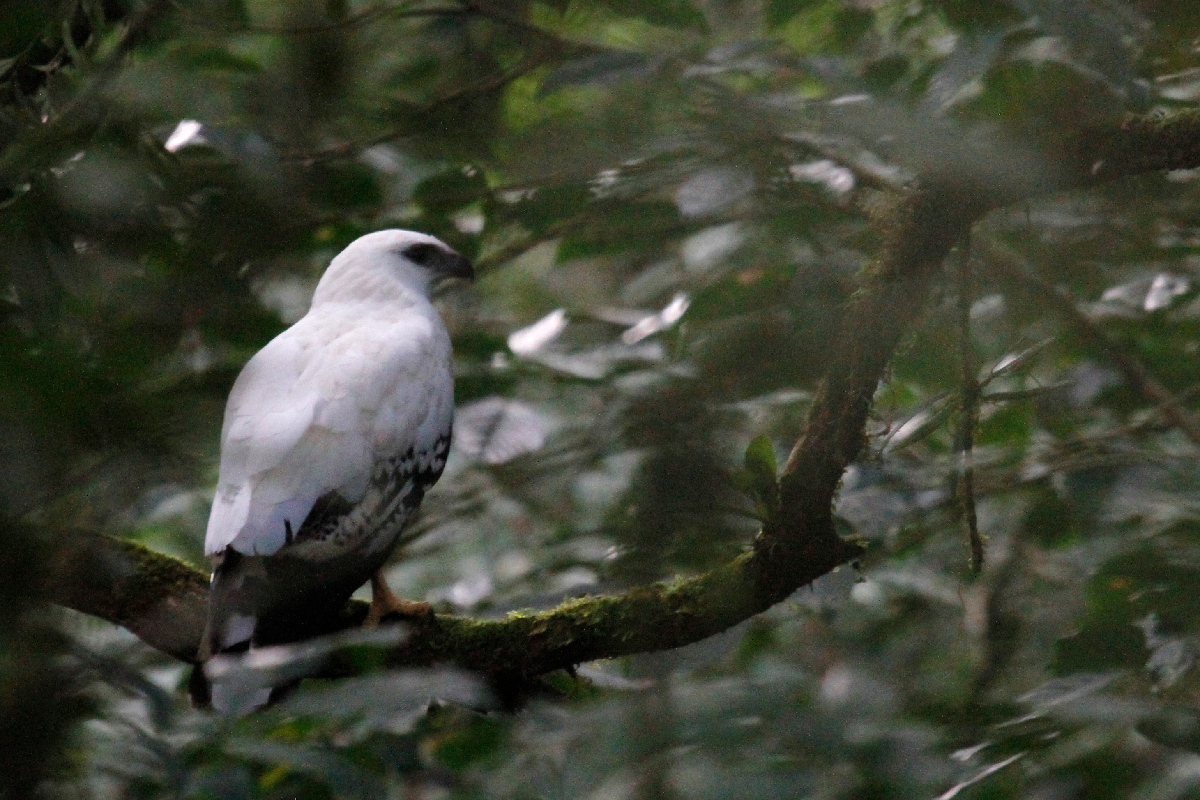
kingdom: Animalia
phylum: Chordata
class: Aves
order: Accipitriformes
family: Accipitridae
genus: Leucopternis
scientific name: Leucopternis albicollis
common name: White hawk
